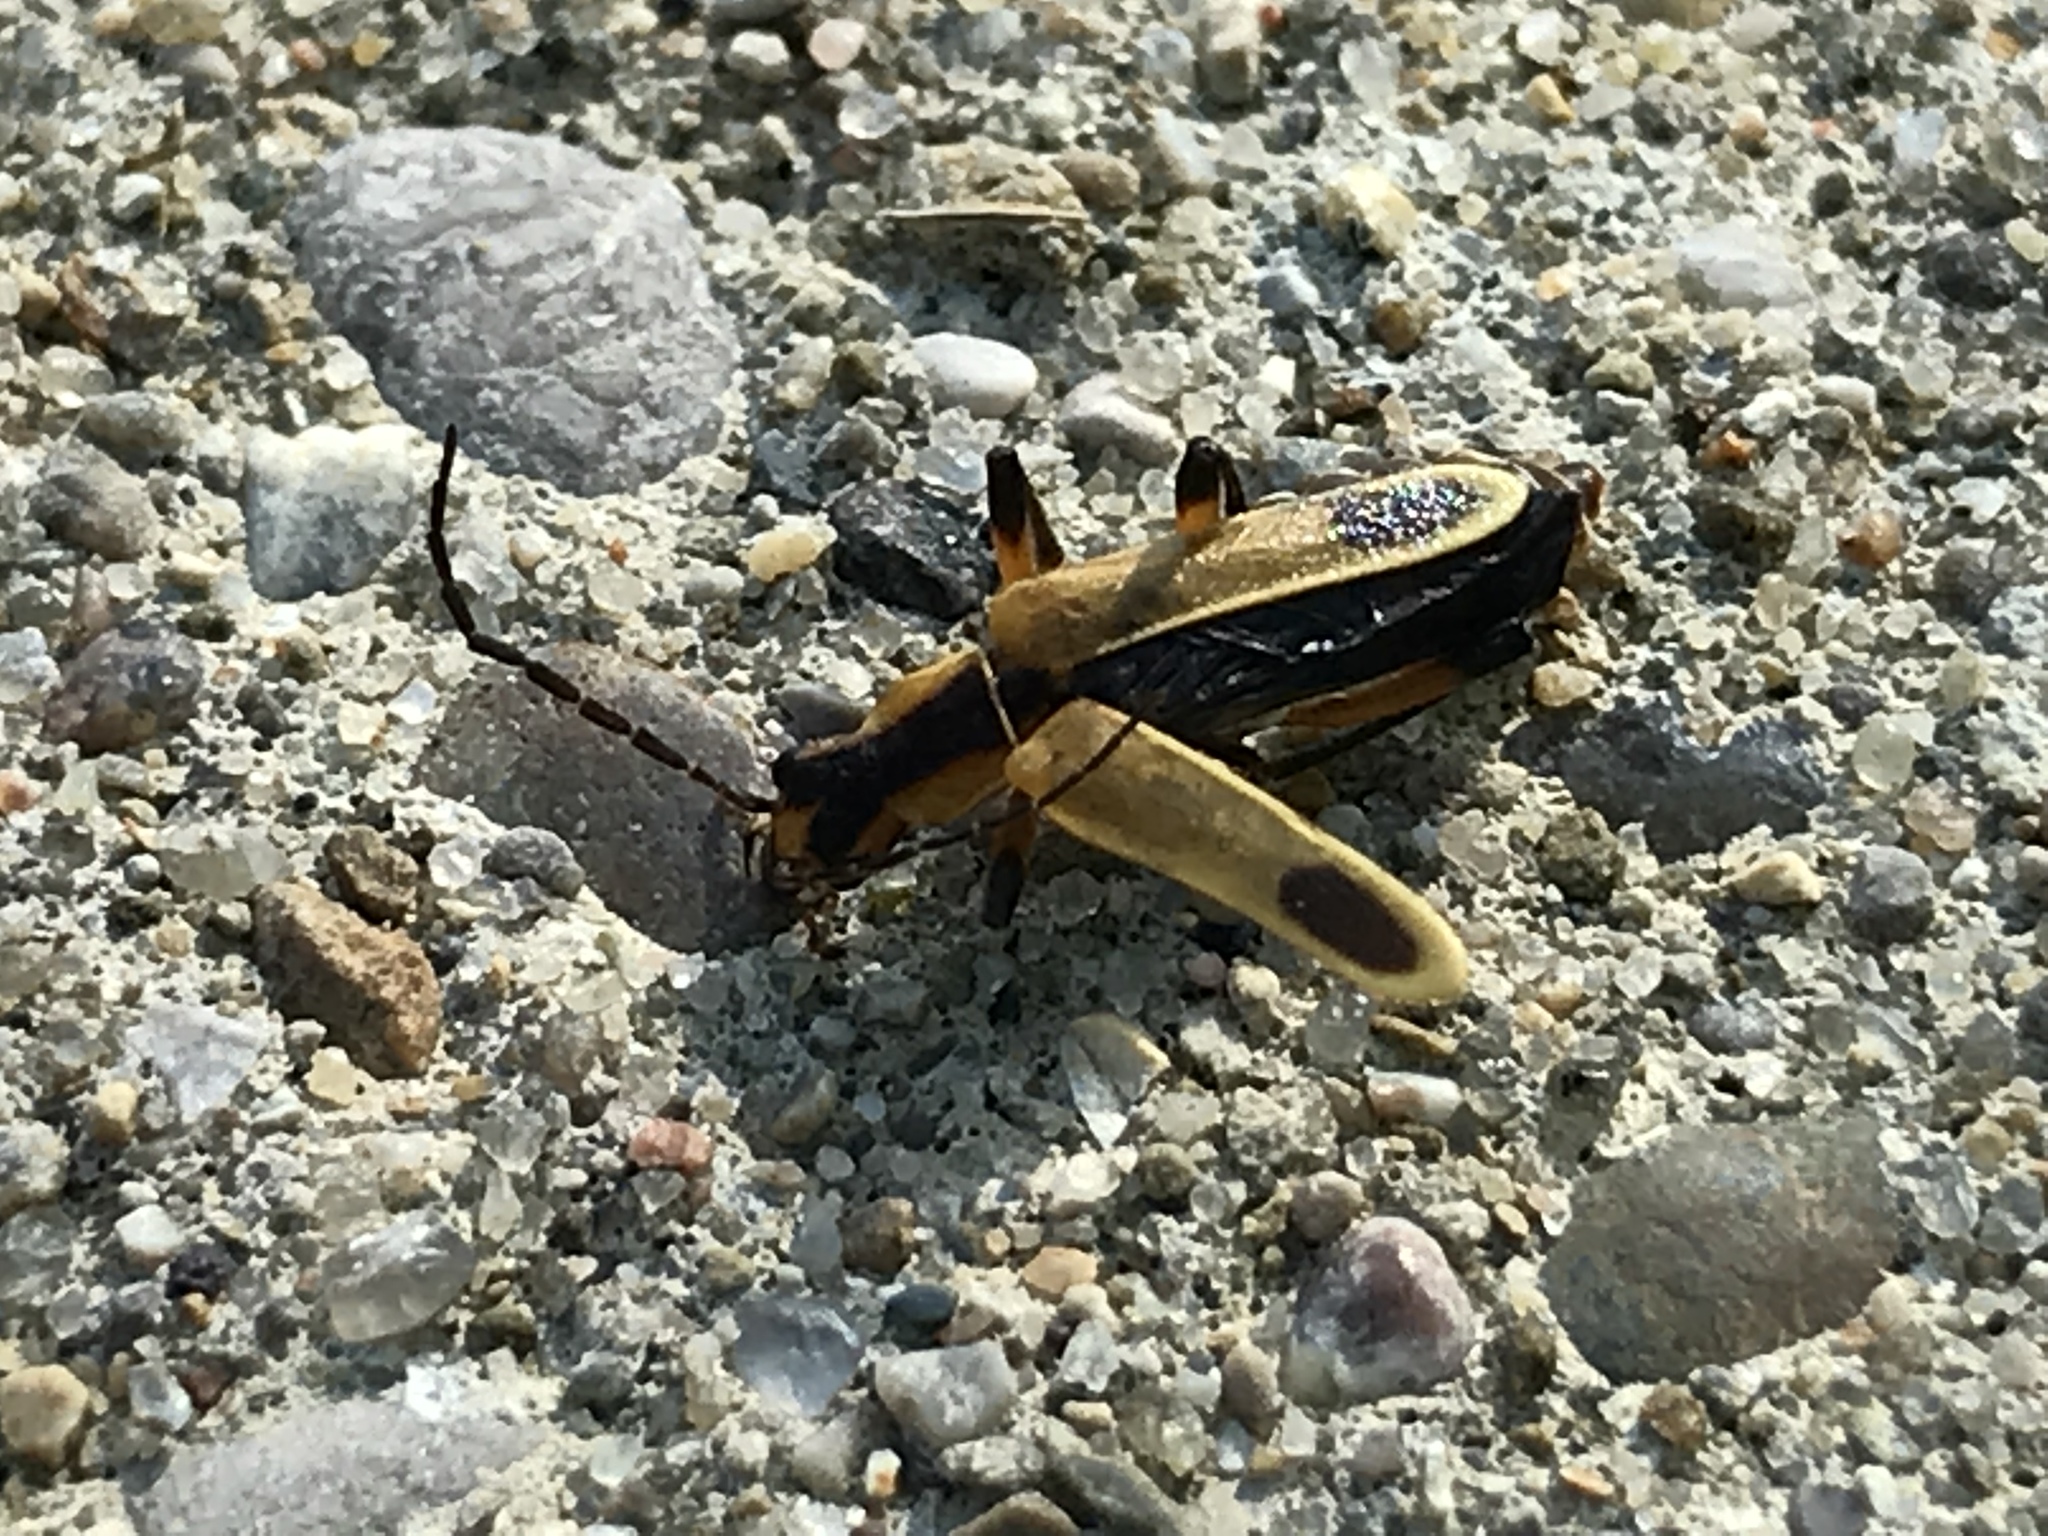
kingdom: Animalia
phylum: Arthropoda
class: Insecta
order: Coleoptera
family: Cantharidae
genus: Chauliognathus
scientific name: Chauliognathus marginatus
